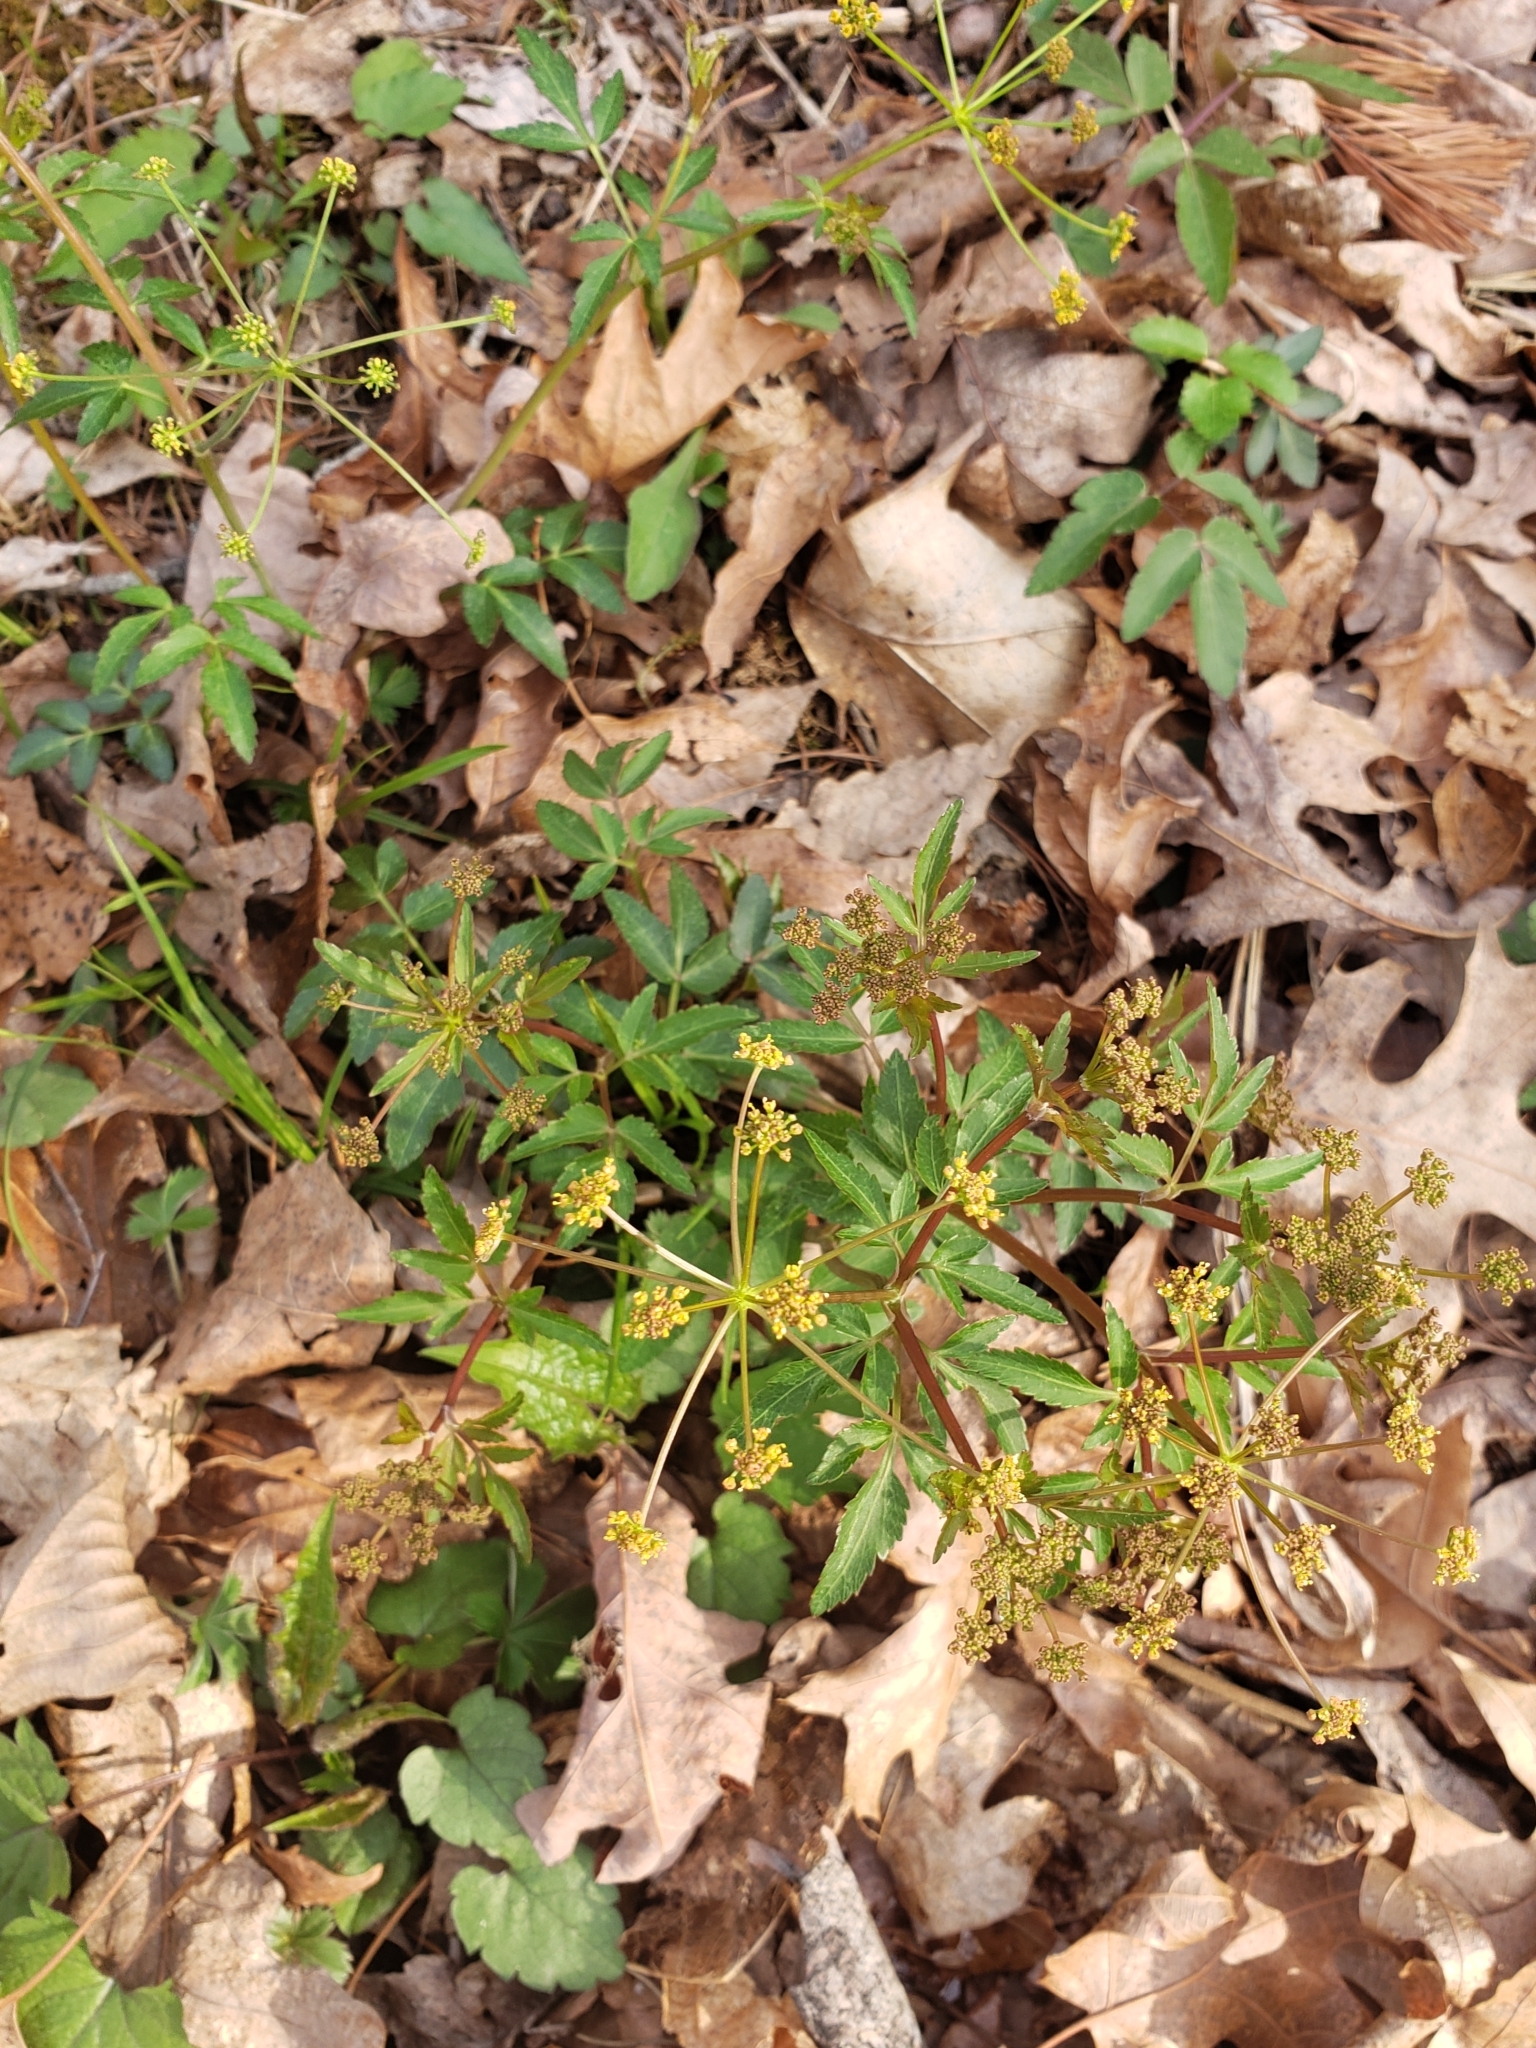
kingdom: Plantae
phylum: Tracheophyta
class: Magnoliopsida
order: Apiales
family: Apiaceae
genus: Zizia
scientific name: Zizia aurea
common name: Golden alexanders
